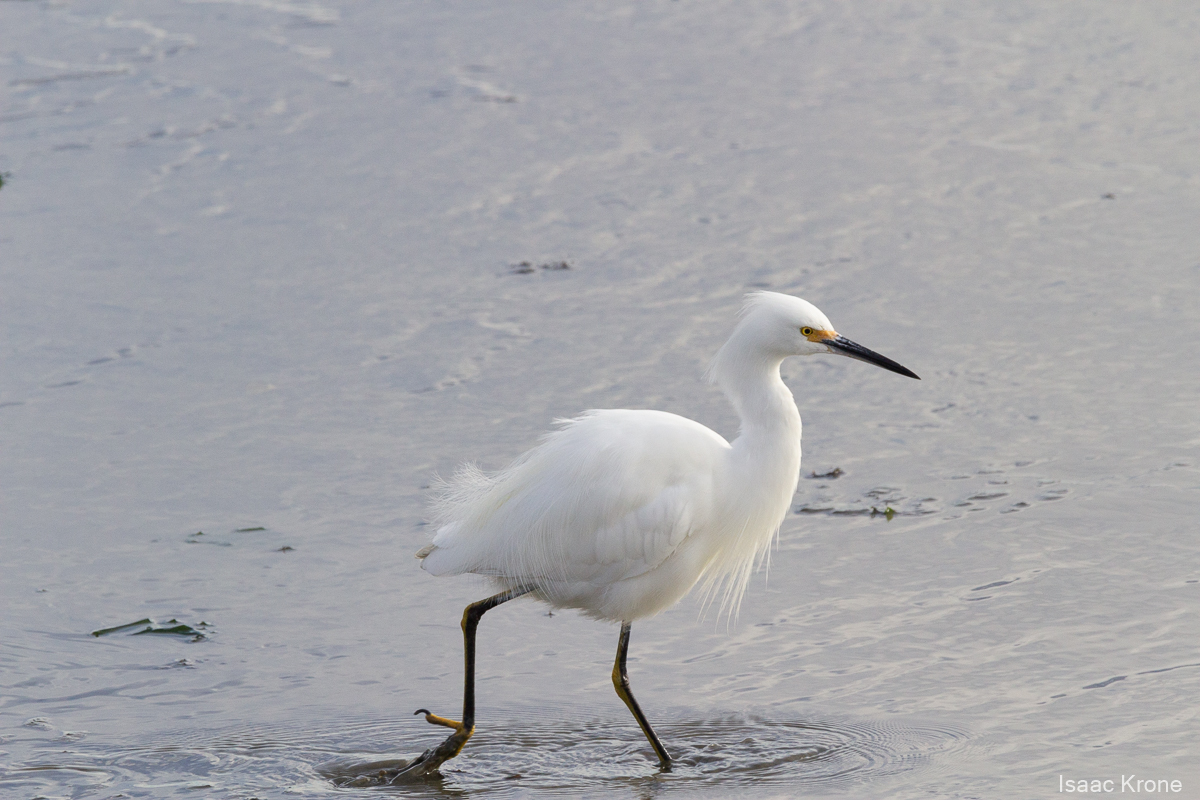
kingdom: Animalia
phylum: Chordata
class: Aves
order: Pelecaniformes
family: Ardeidae
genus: Egretta
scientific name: Egretta thula
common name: Snowy egret
